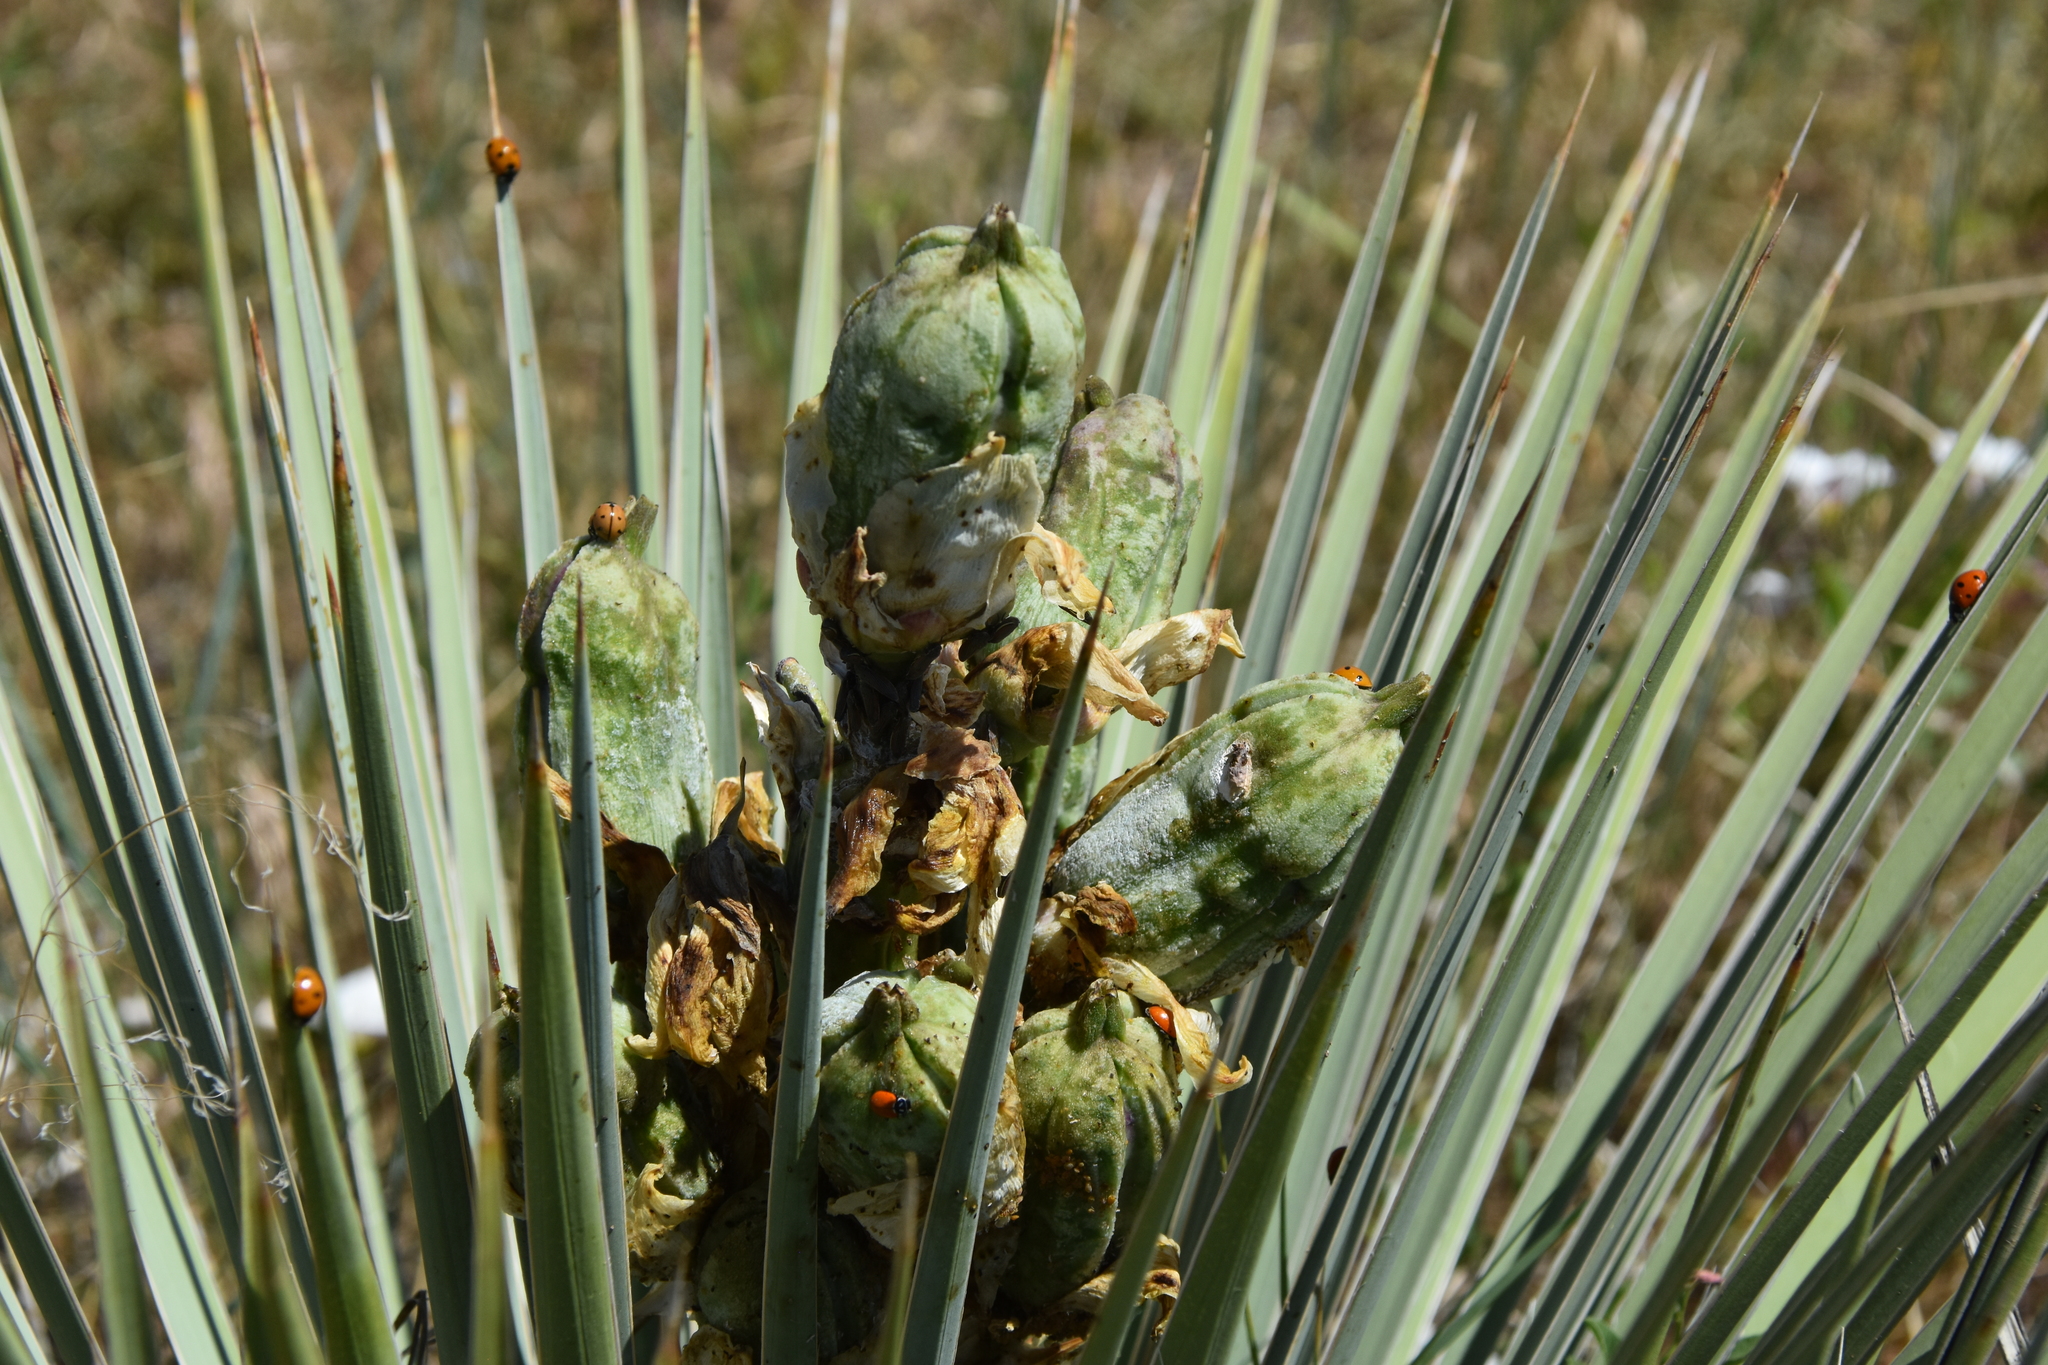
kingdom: Plantae
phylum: Tracheophyta
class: Liliopsida
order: Asparagales
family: Asparagaceae
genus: Yucca
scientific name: Yucca glauca
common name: Great plains yucca
